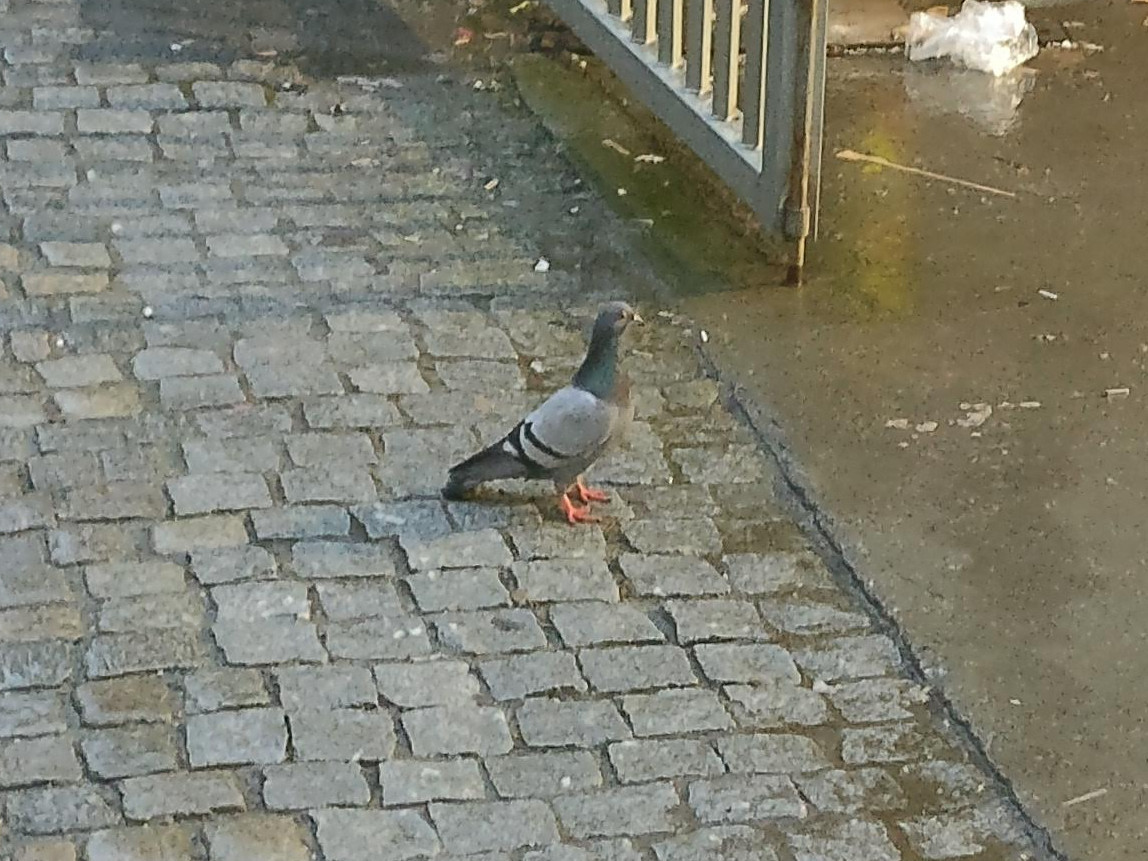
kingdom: Animalia
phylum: Chordata
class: Aves
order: Columbiformes
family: Columbidae
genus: Columba
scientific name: Columba livia
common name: Rock pigeon
